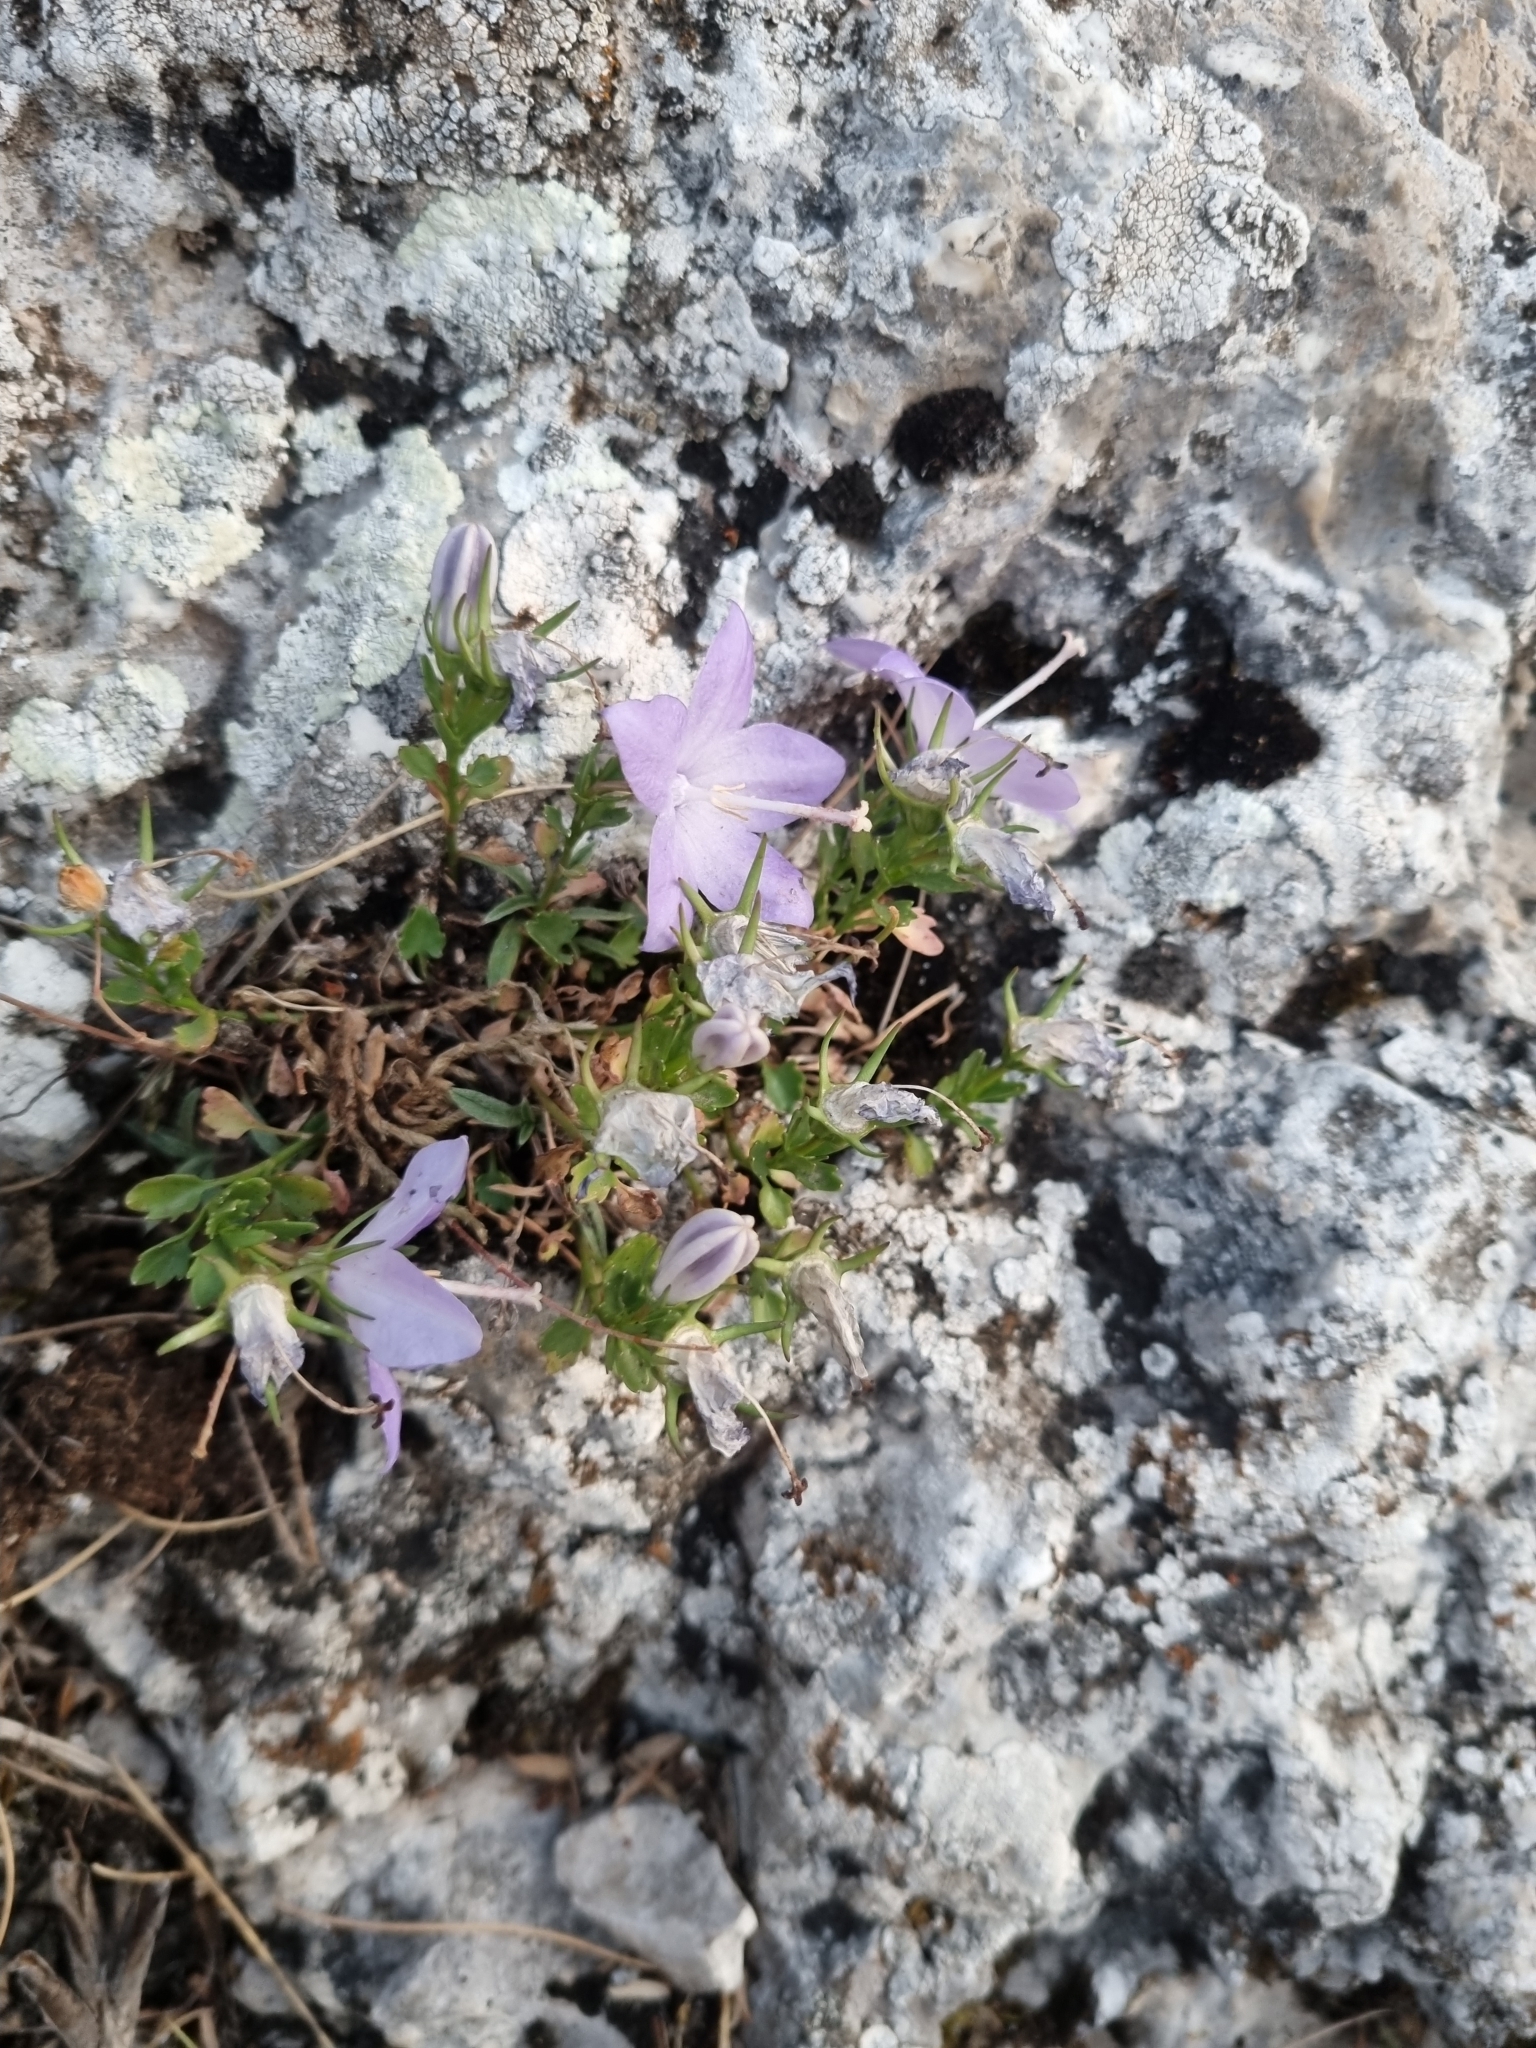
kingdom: Plantae
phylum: Tracheophyta
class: Magnoliopsida
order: Asterales
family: Campanulaceae
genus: Campanula
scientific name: Campanula fragilis
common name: Italian bellflower
